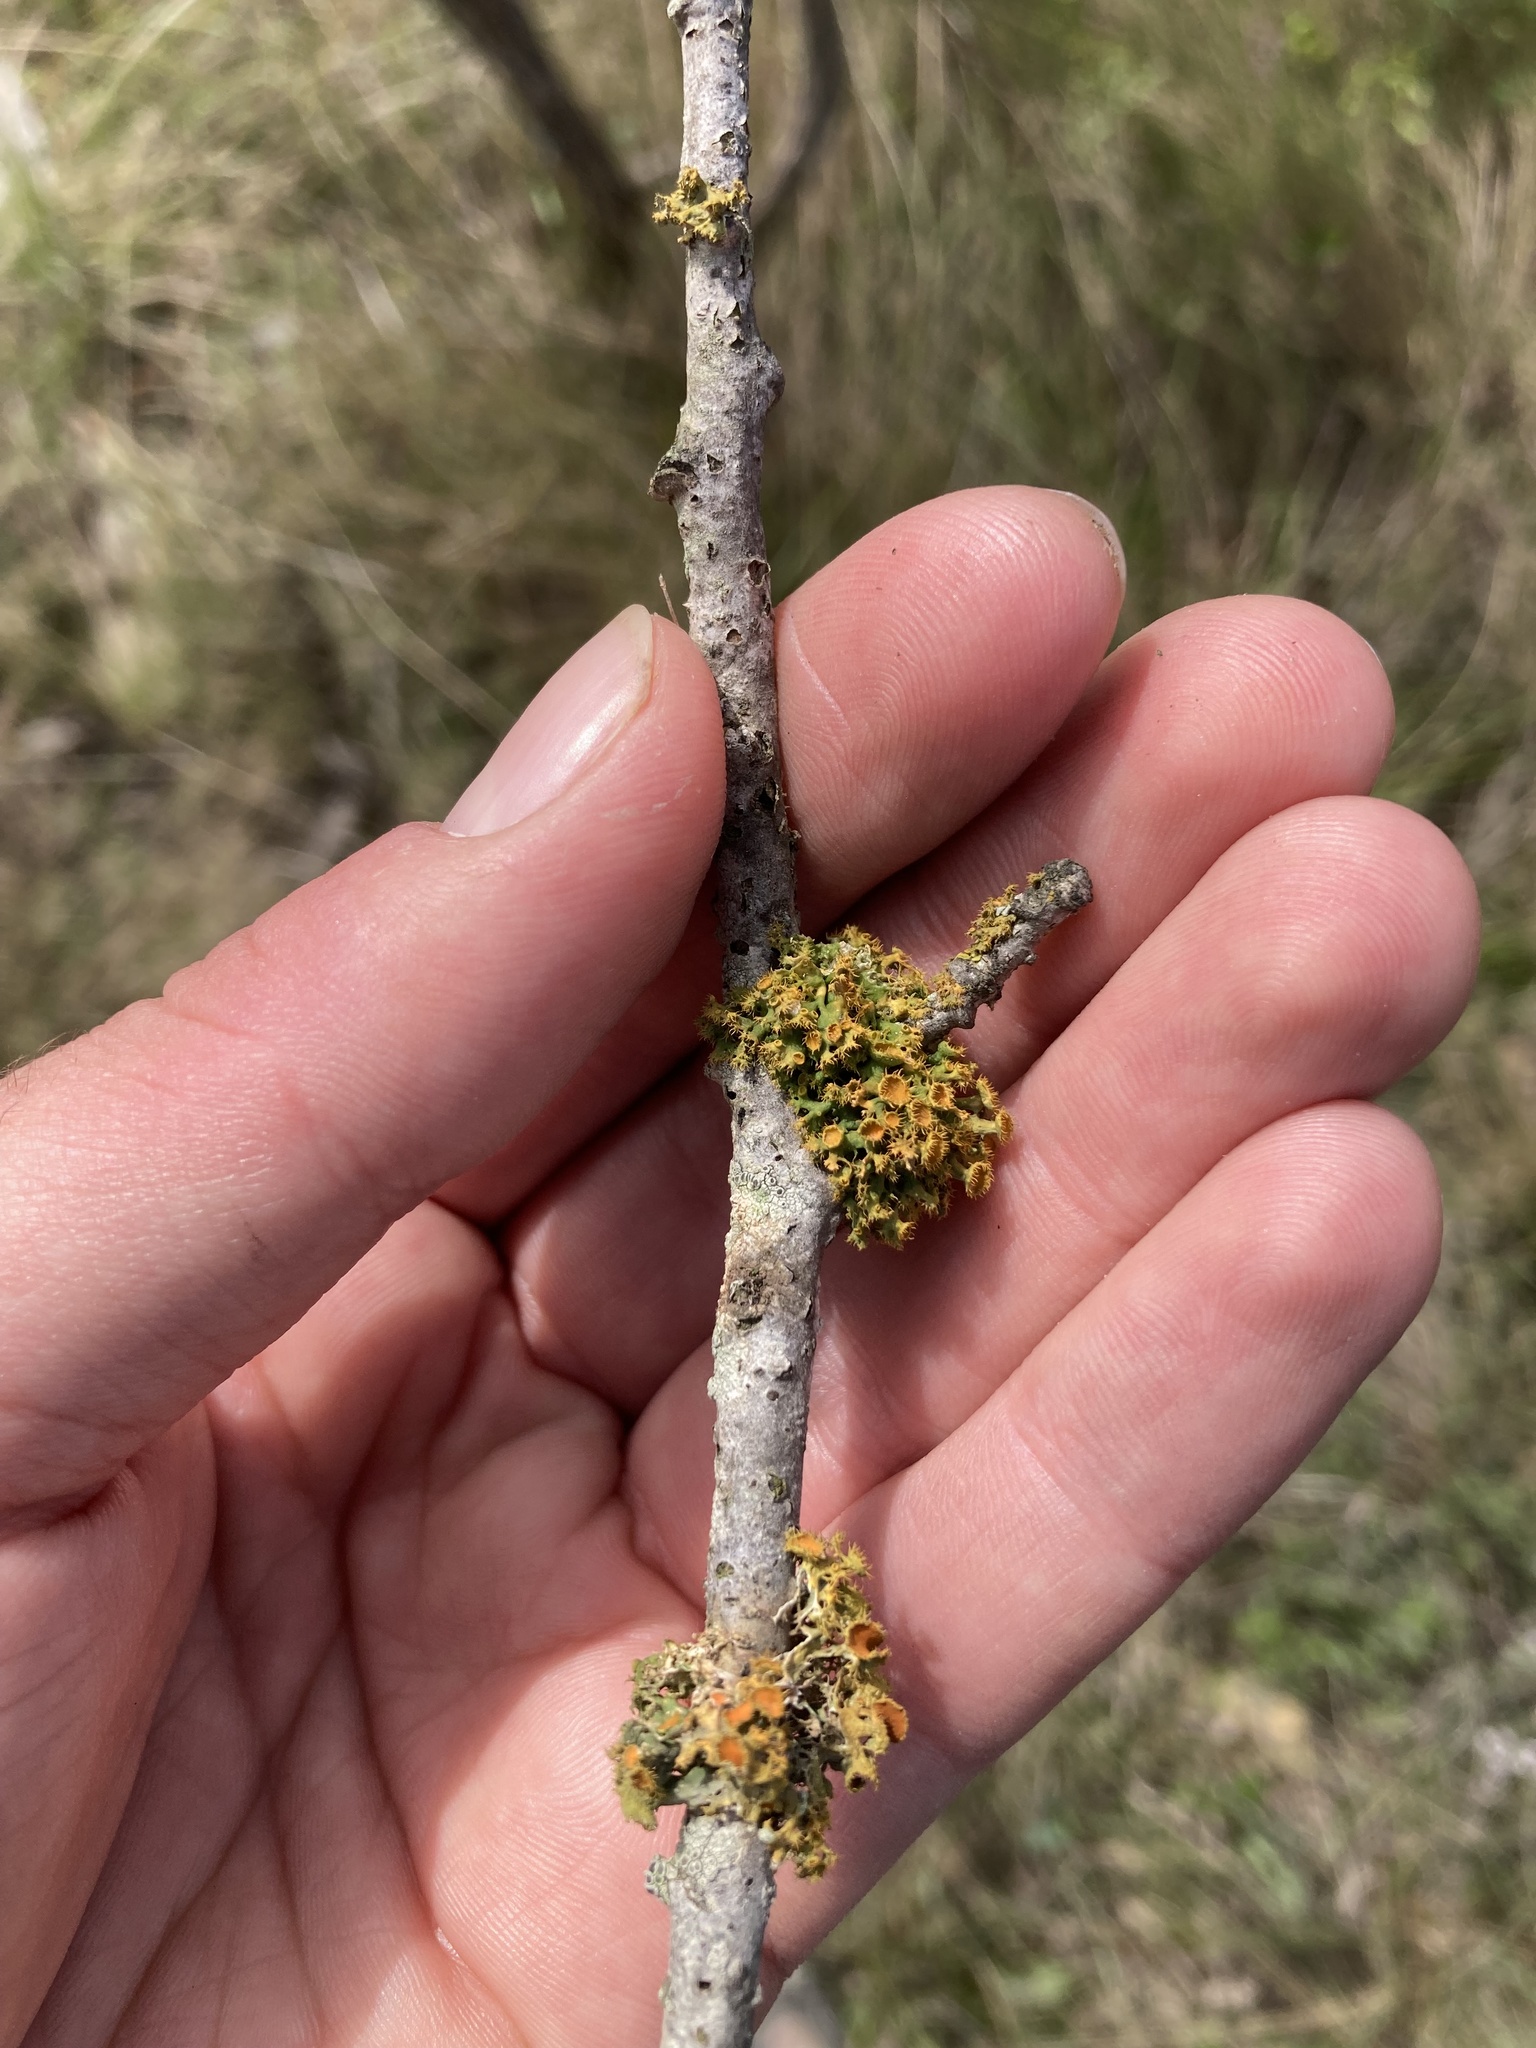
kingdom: Fungi
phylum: Ascomycota
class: Lecanoromycetes
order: Teloschistales
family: Teloschistaceae
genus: Niorma
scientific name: Niorma chrysophthalma
